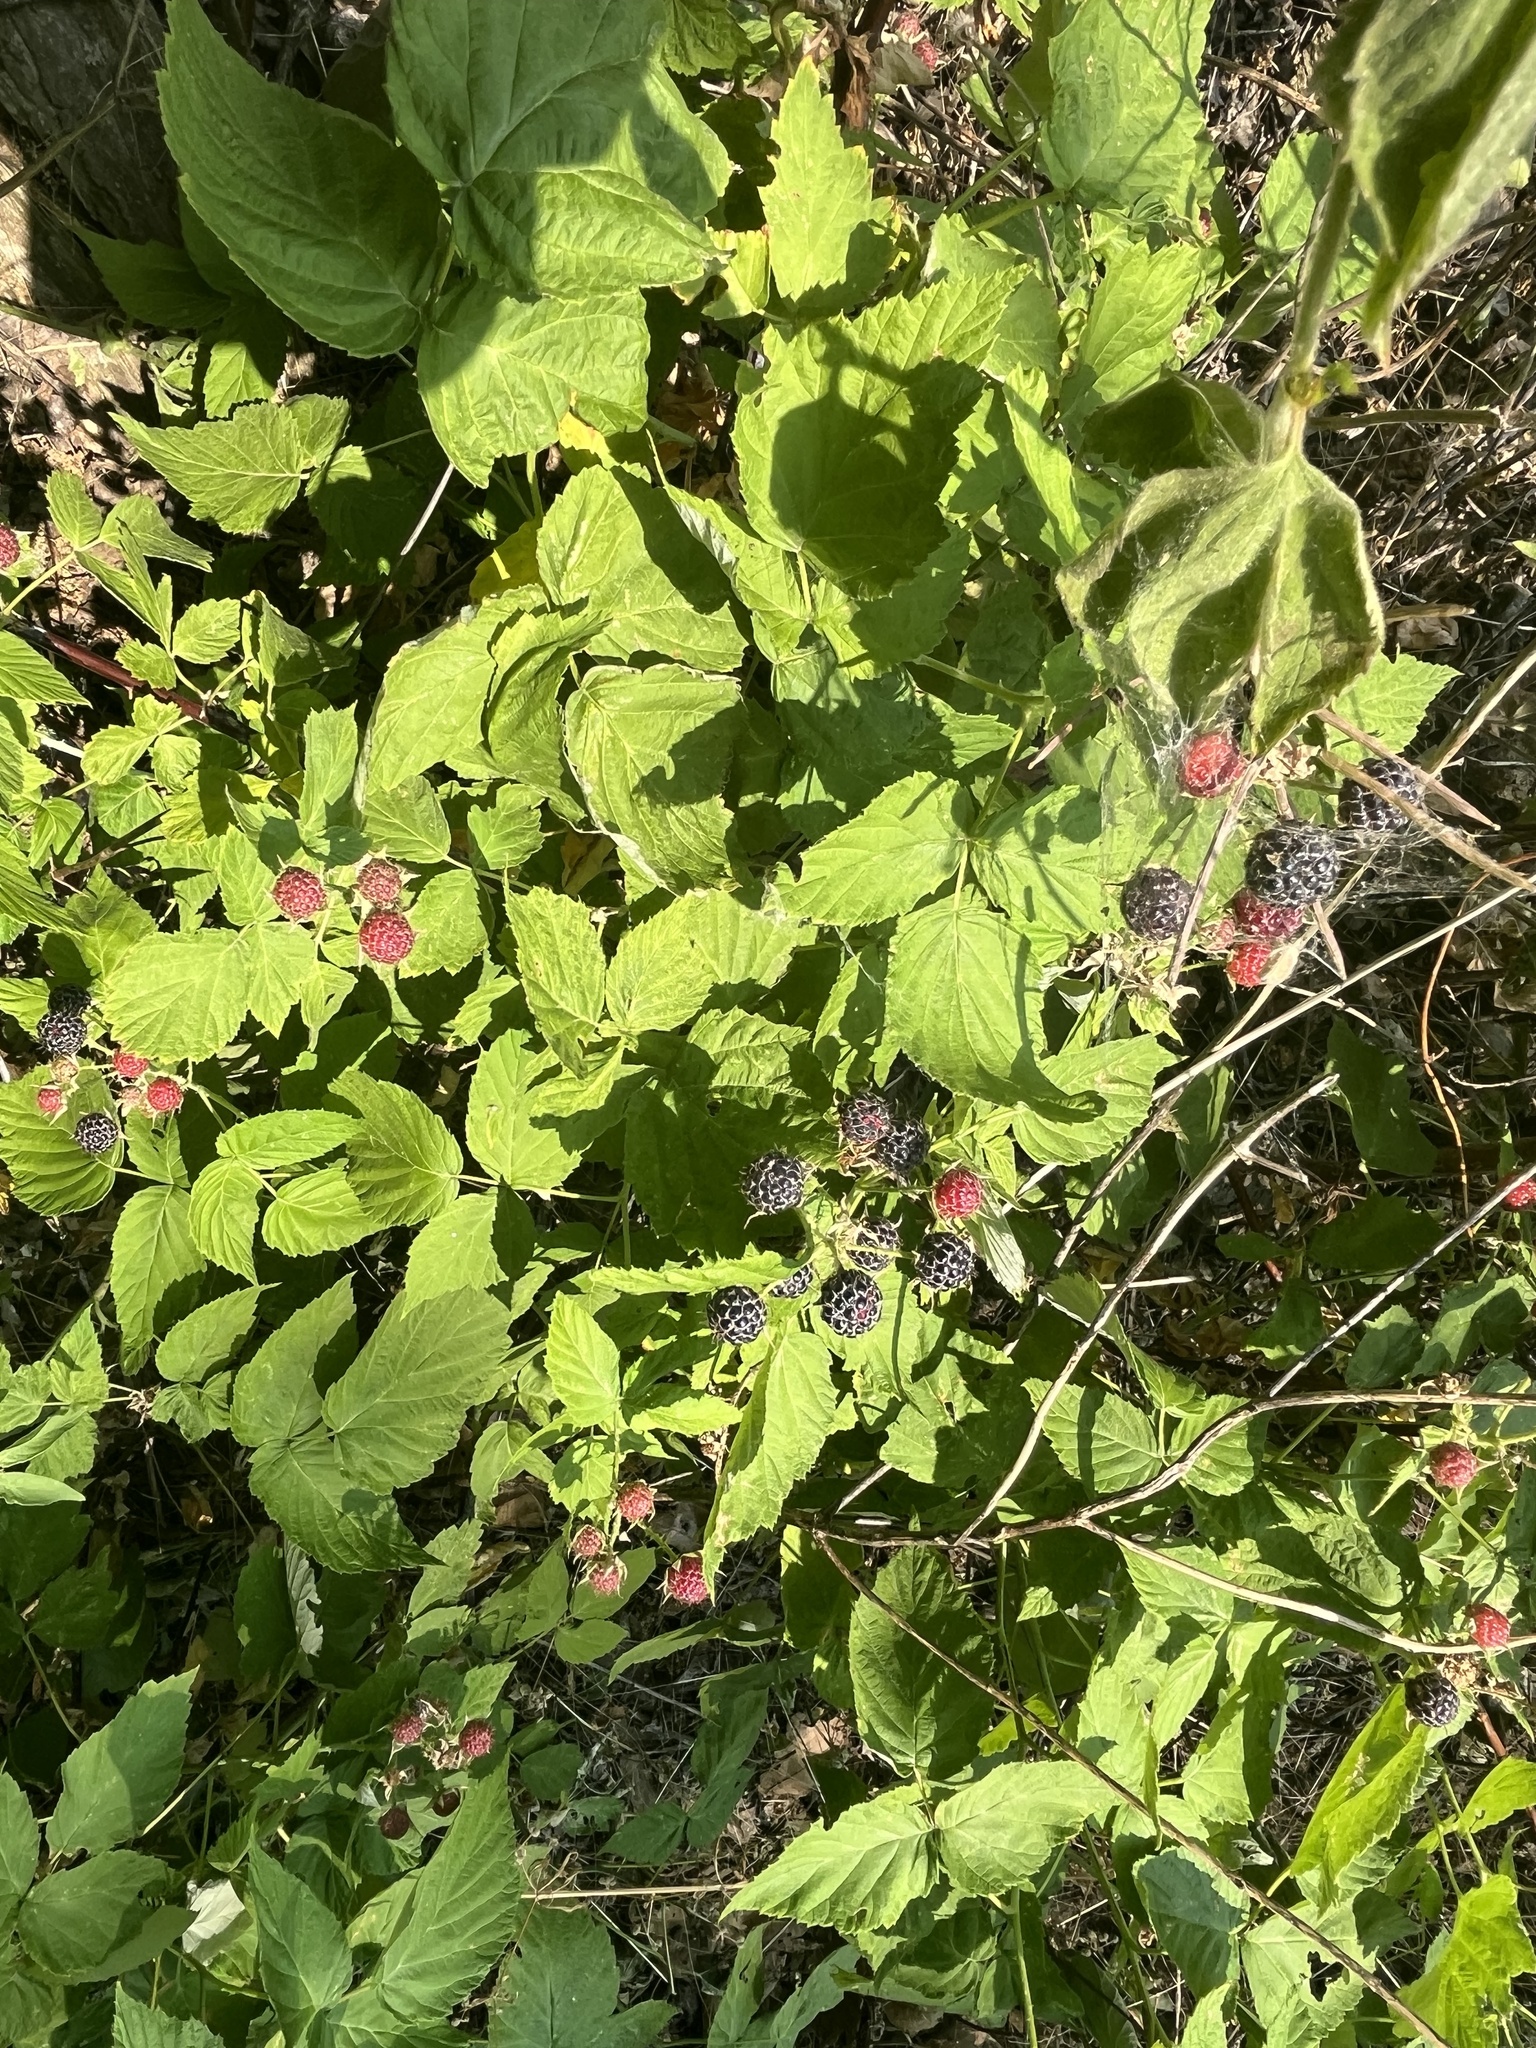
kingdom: Plantae
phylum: Tracheophyta
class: Magnoliopsida
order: Rosales
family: Rosaceae
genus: Rubus
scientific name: Rubus occidentalis
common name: Black raspberry
